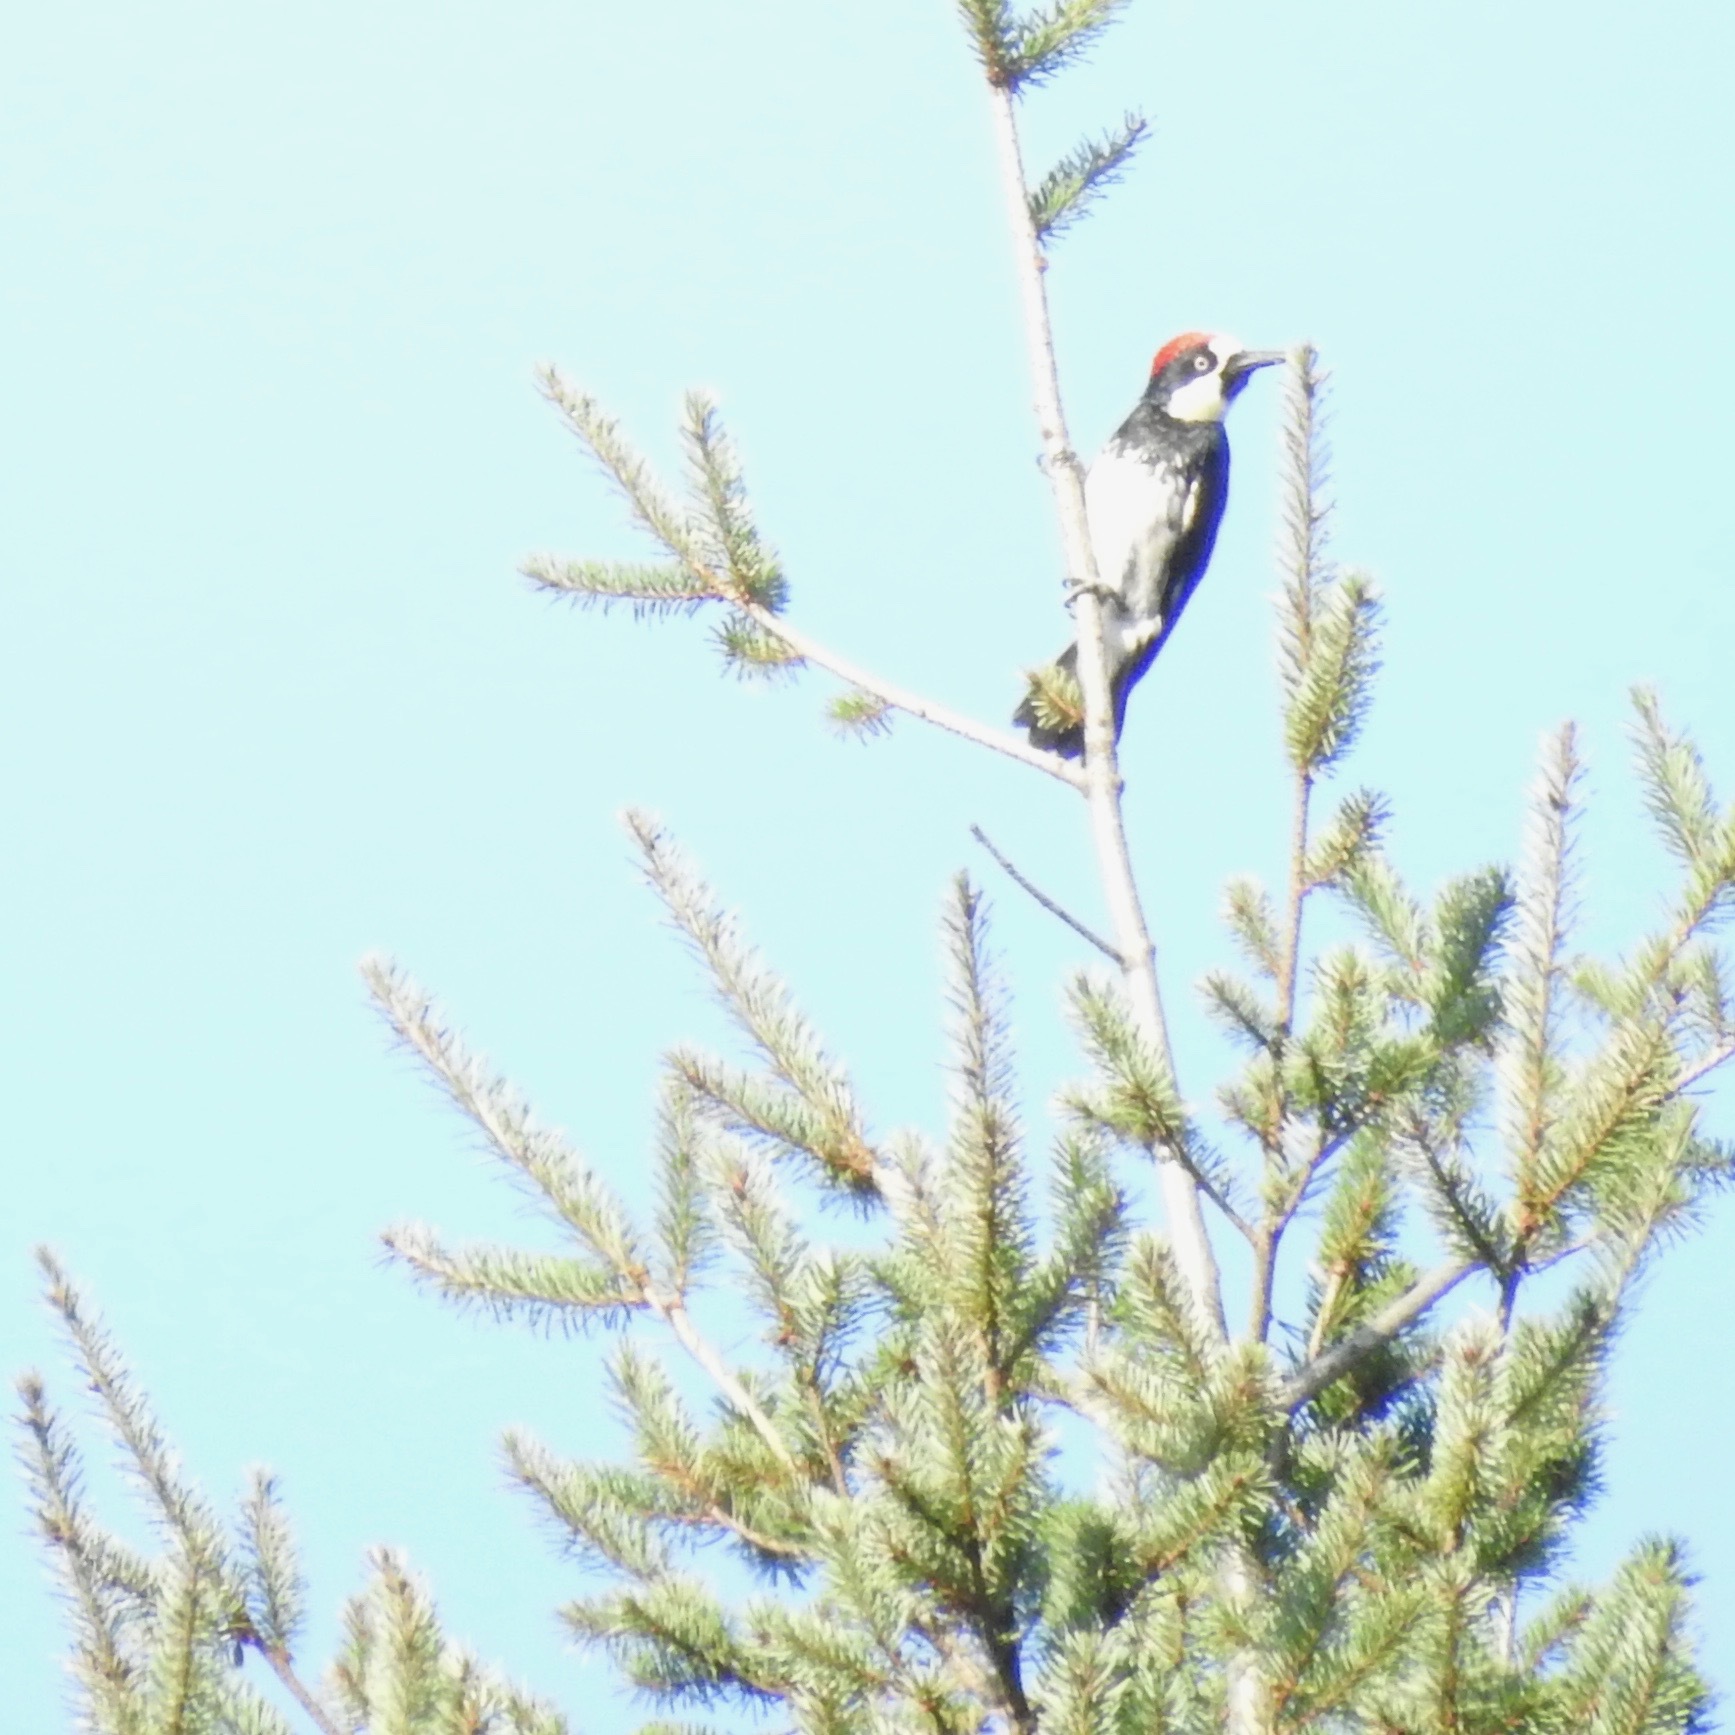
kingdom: Animalia
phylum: Chordata
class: Aves
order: Piciformes
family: Picidae
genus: Melanerpes
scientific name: Melanerpes formicivorus
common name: Acorn woodpecker
